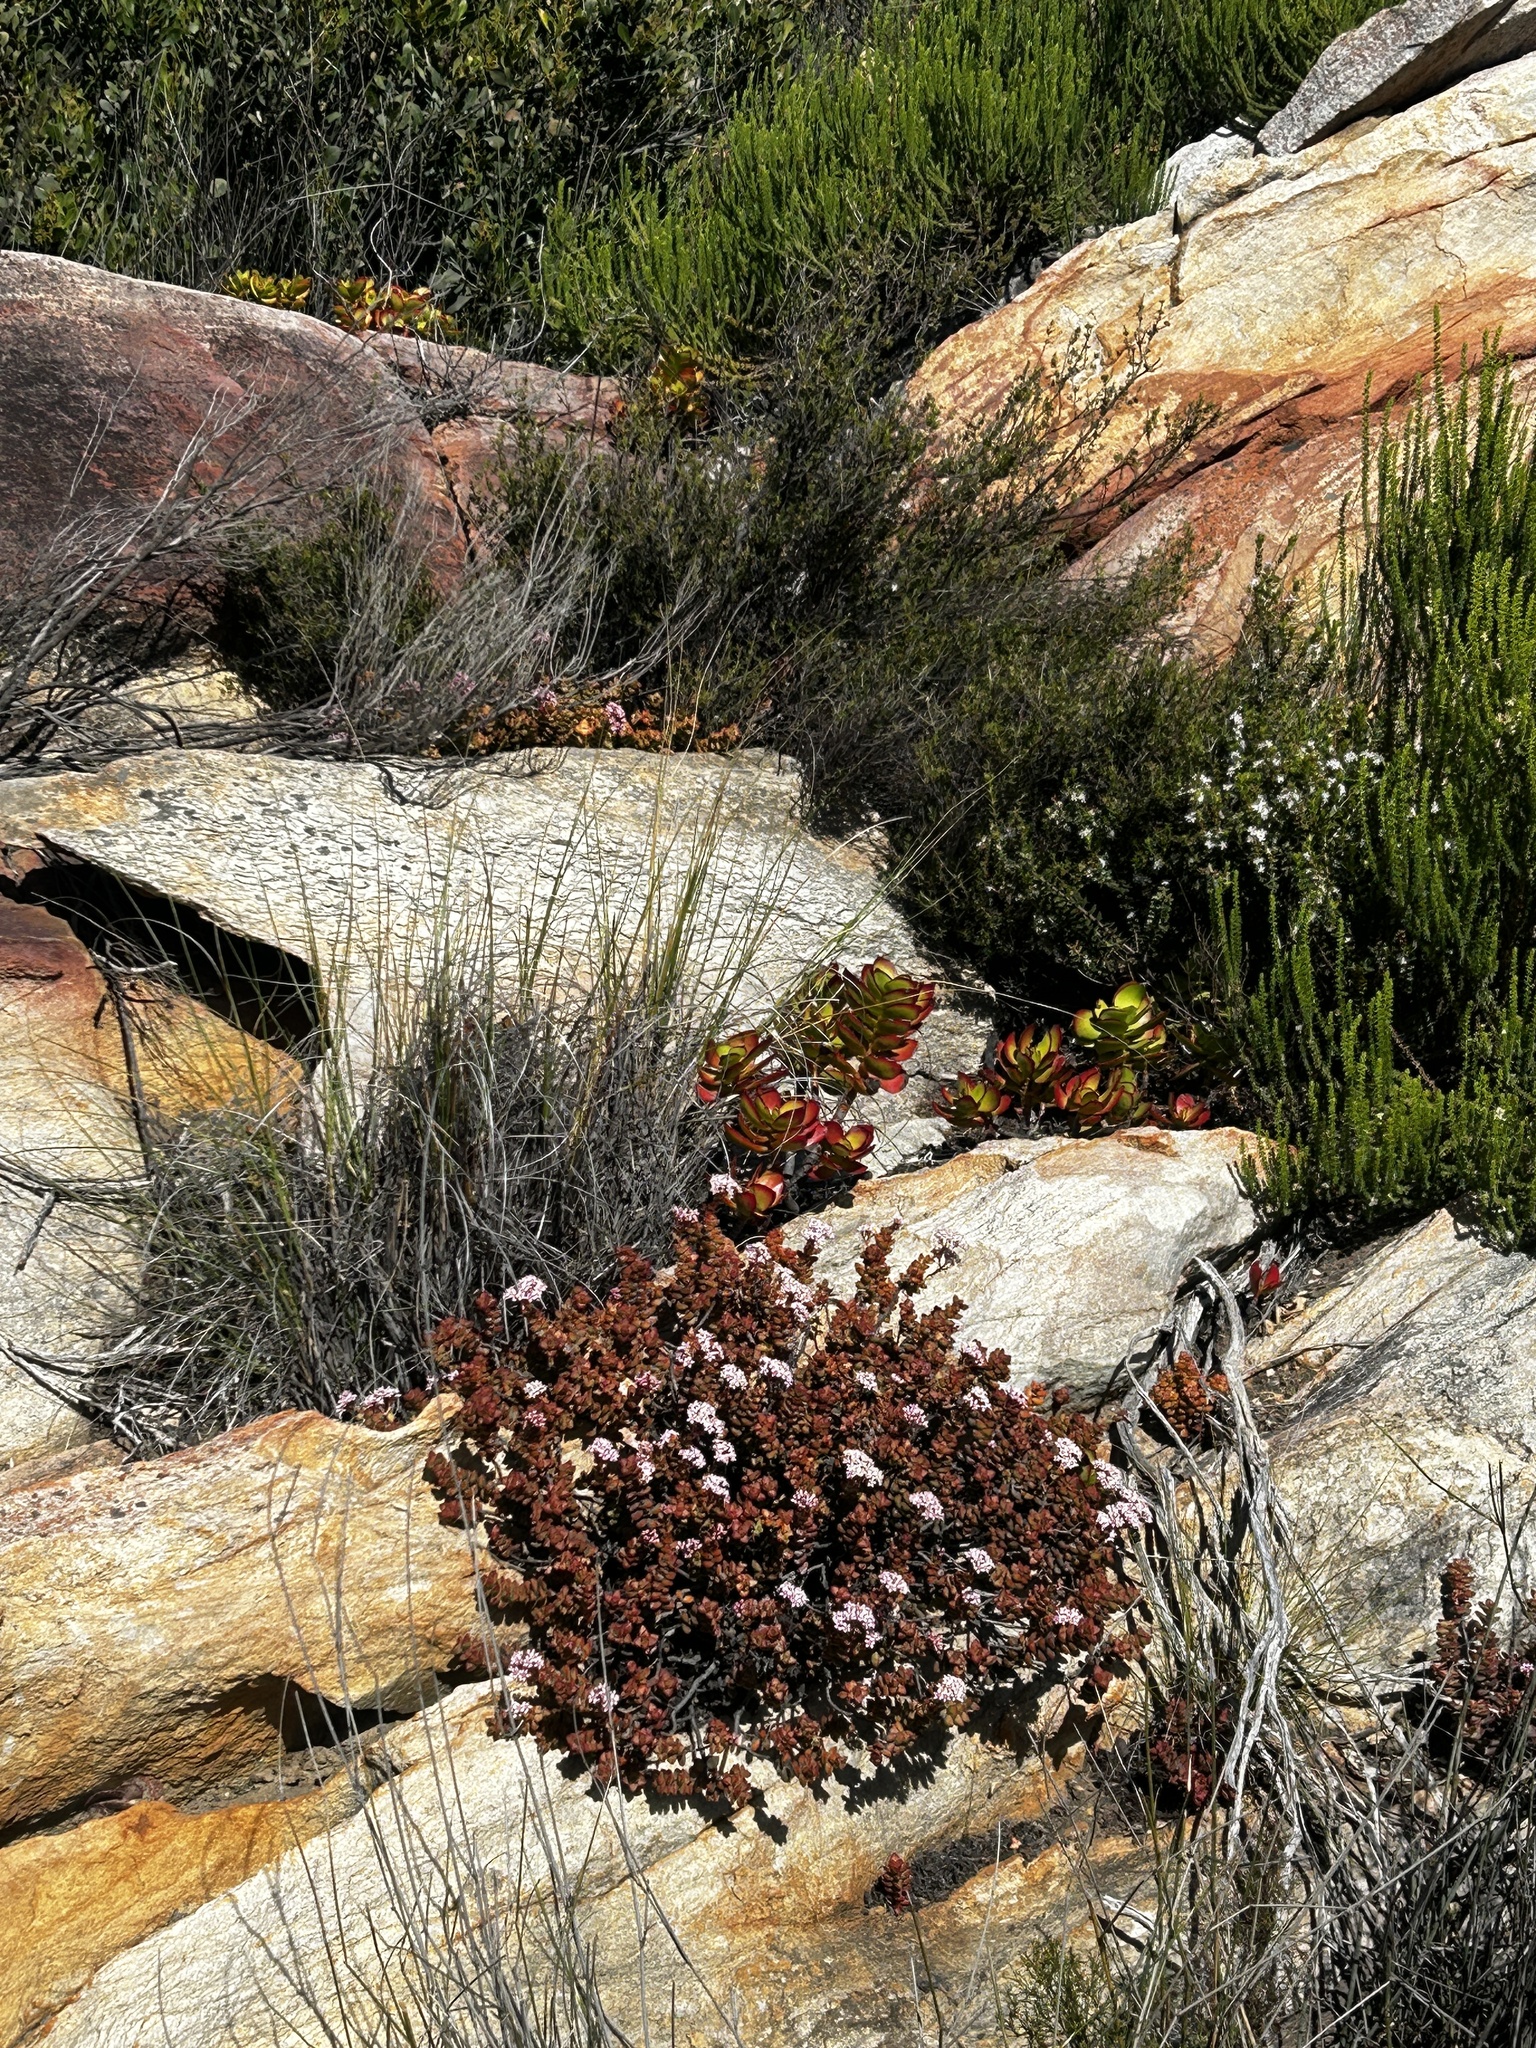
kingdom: Plantae
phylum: Tracheophyta
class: Magnoliopsida
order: Saxifragales
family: Crassulaceae
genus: Crassula
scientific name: Crassula rupestris
